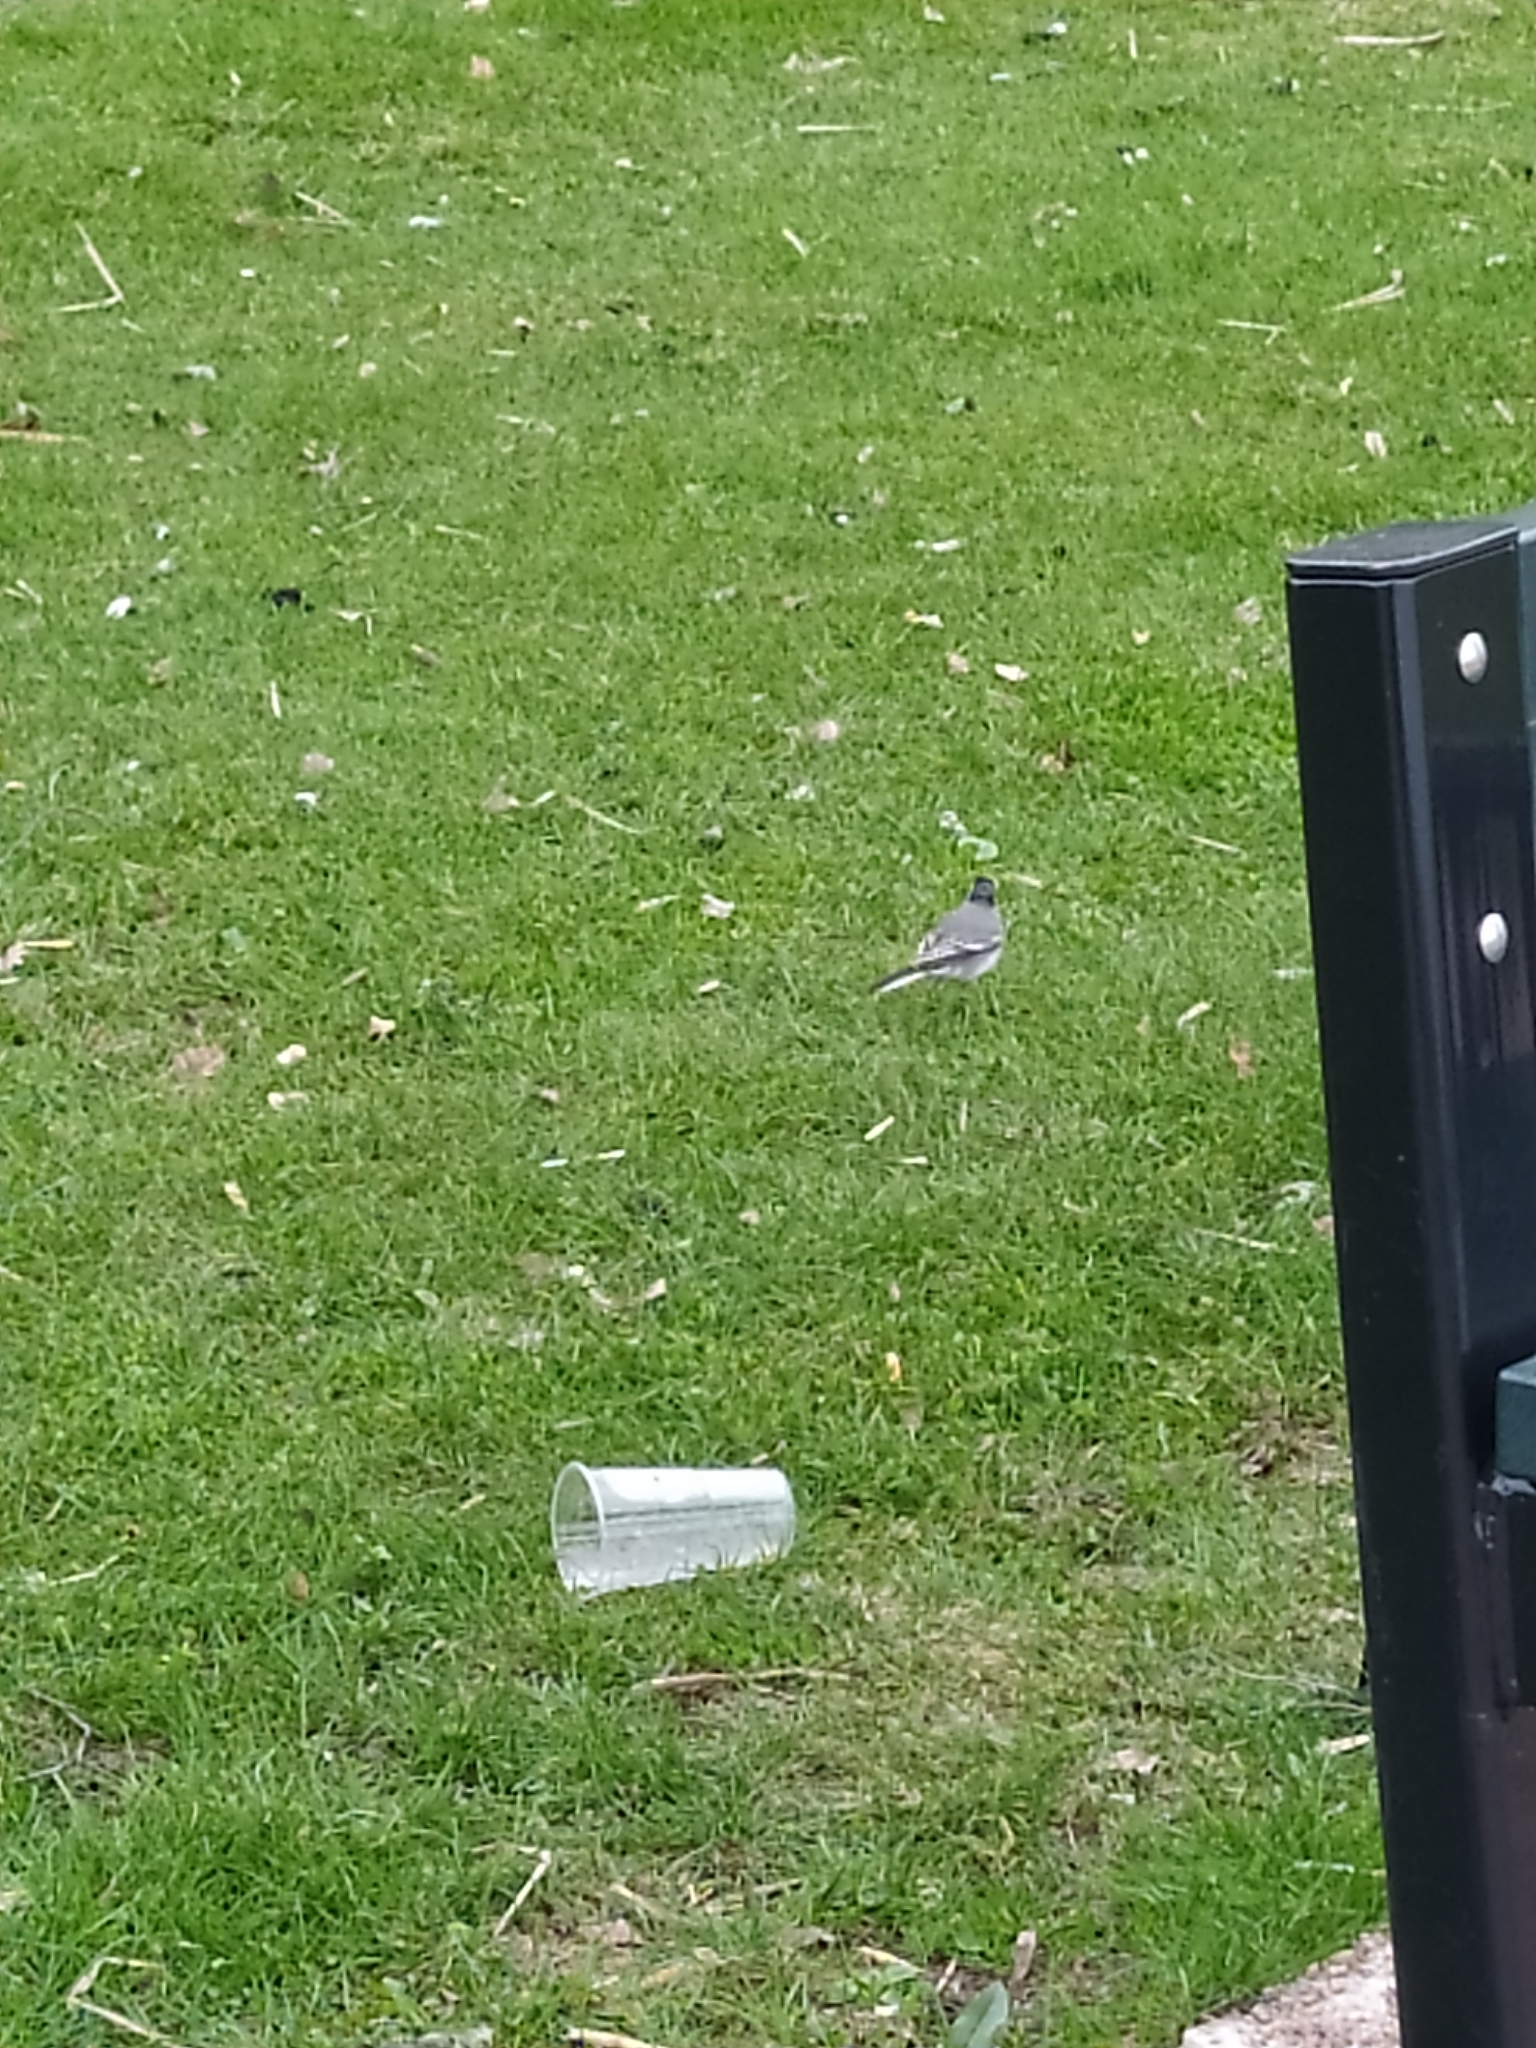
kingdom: Animalia
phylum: Chordata
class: Aves
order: Passeriformes
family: Motacillidae
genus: Motacilla
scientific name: Motacilla alba
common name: White wagtail
